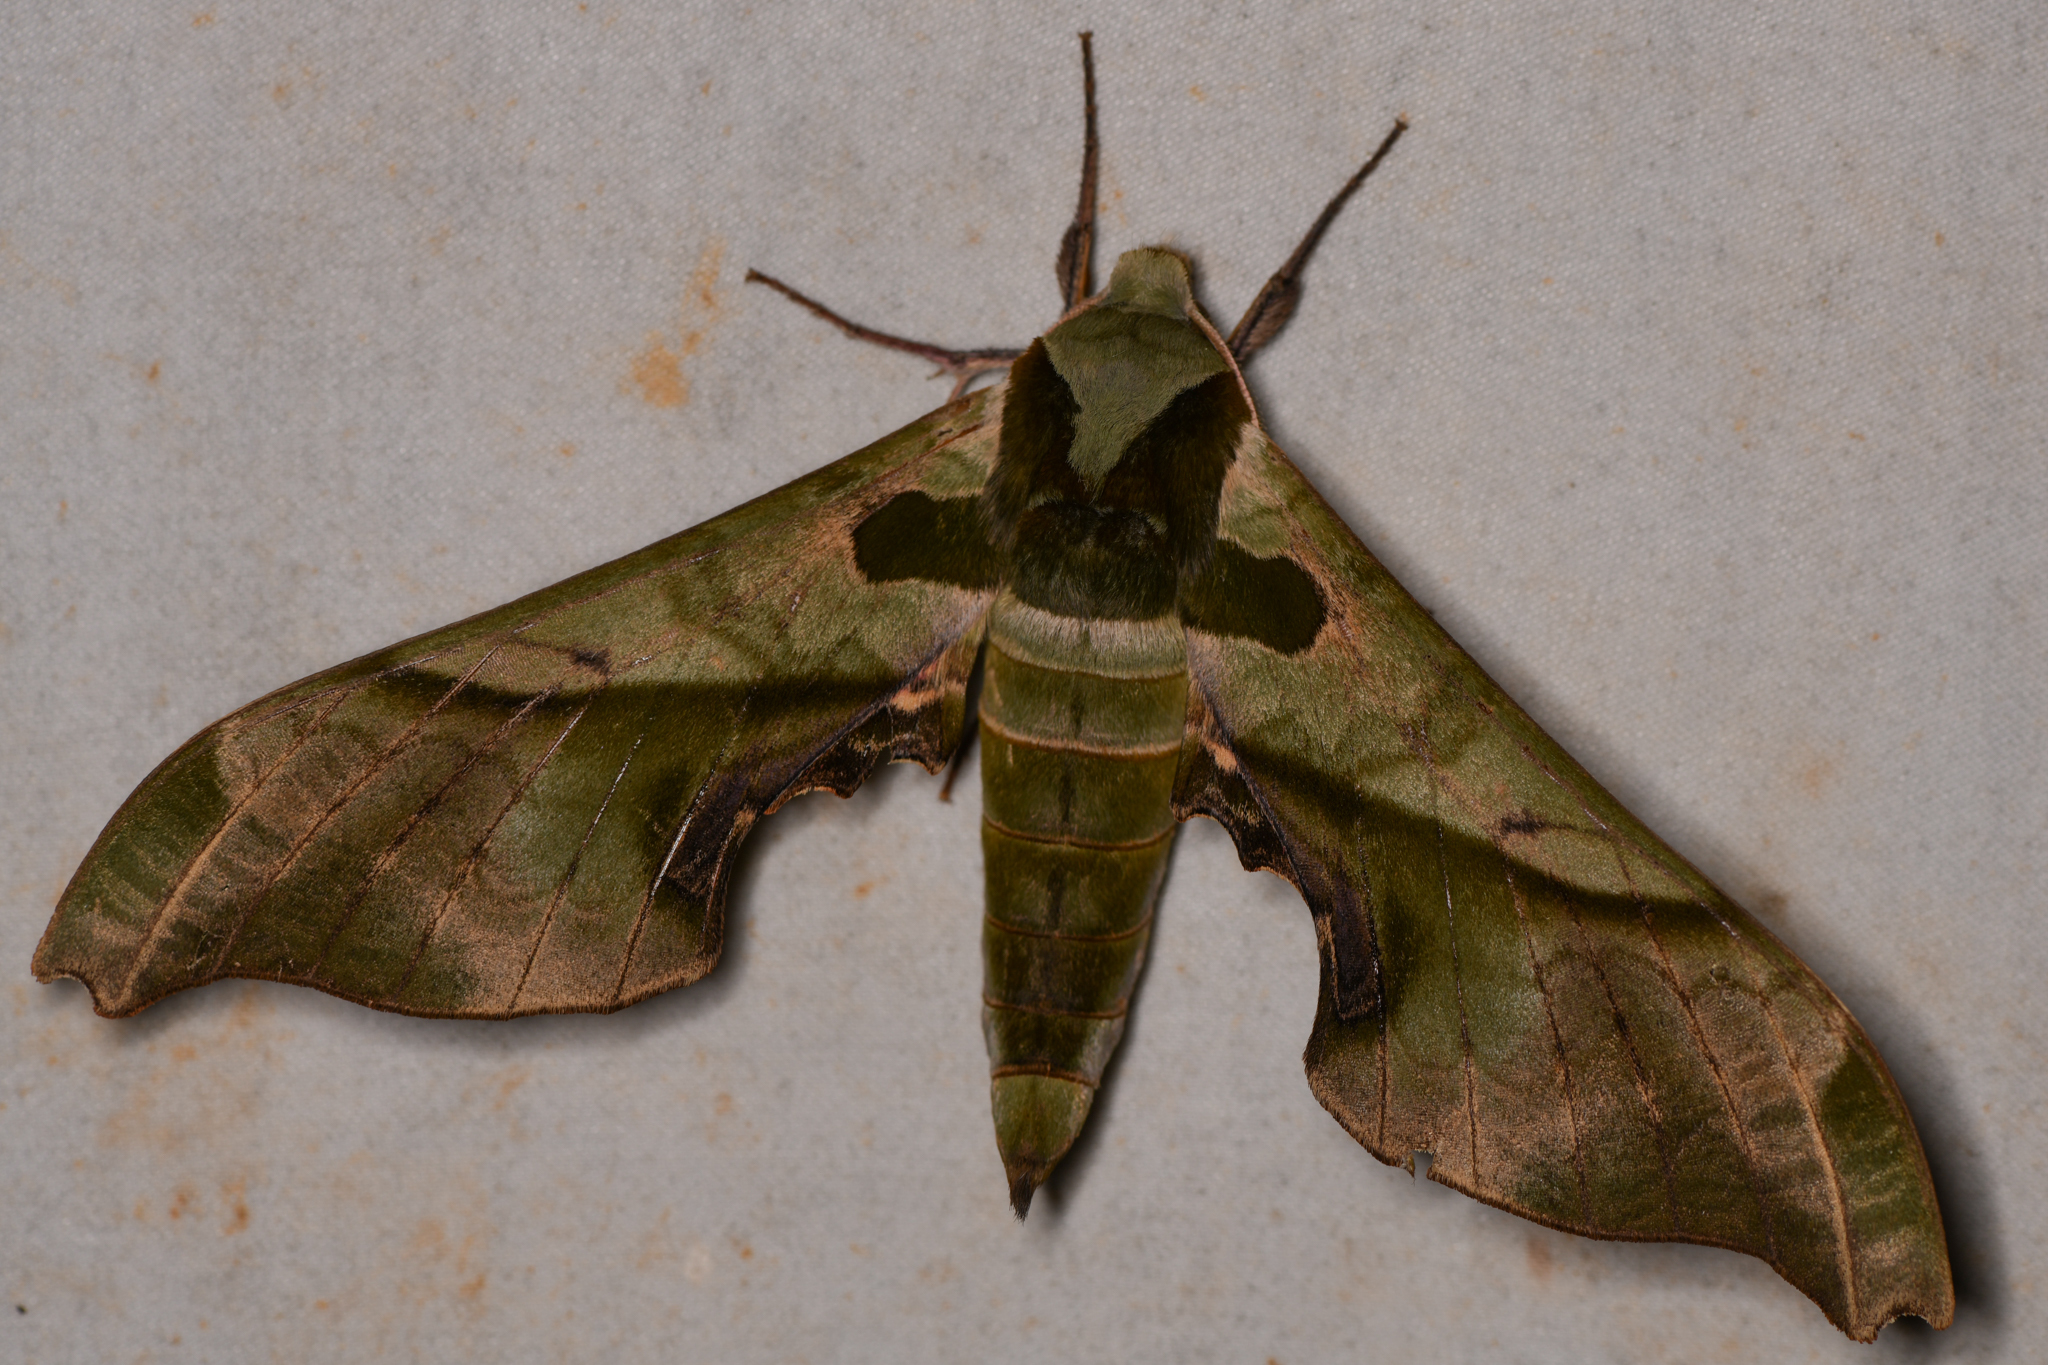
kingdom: Animalia
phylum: Arthropoda
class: Insecta
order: Lepidoptera
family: Sphingidae
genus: Adhemarius
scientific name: Adhemarius dariensis
